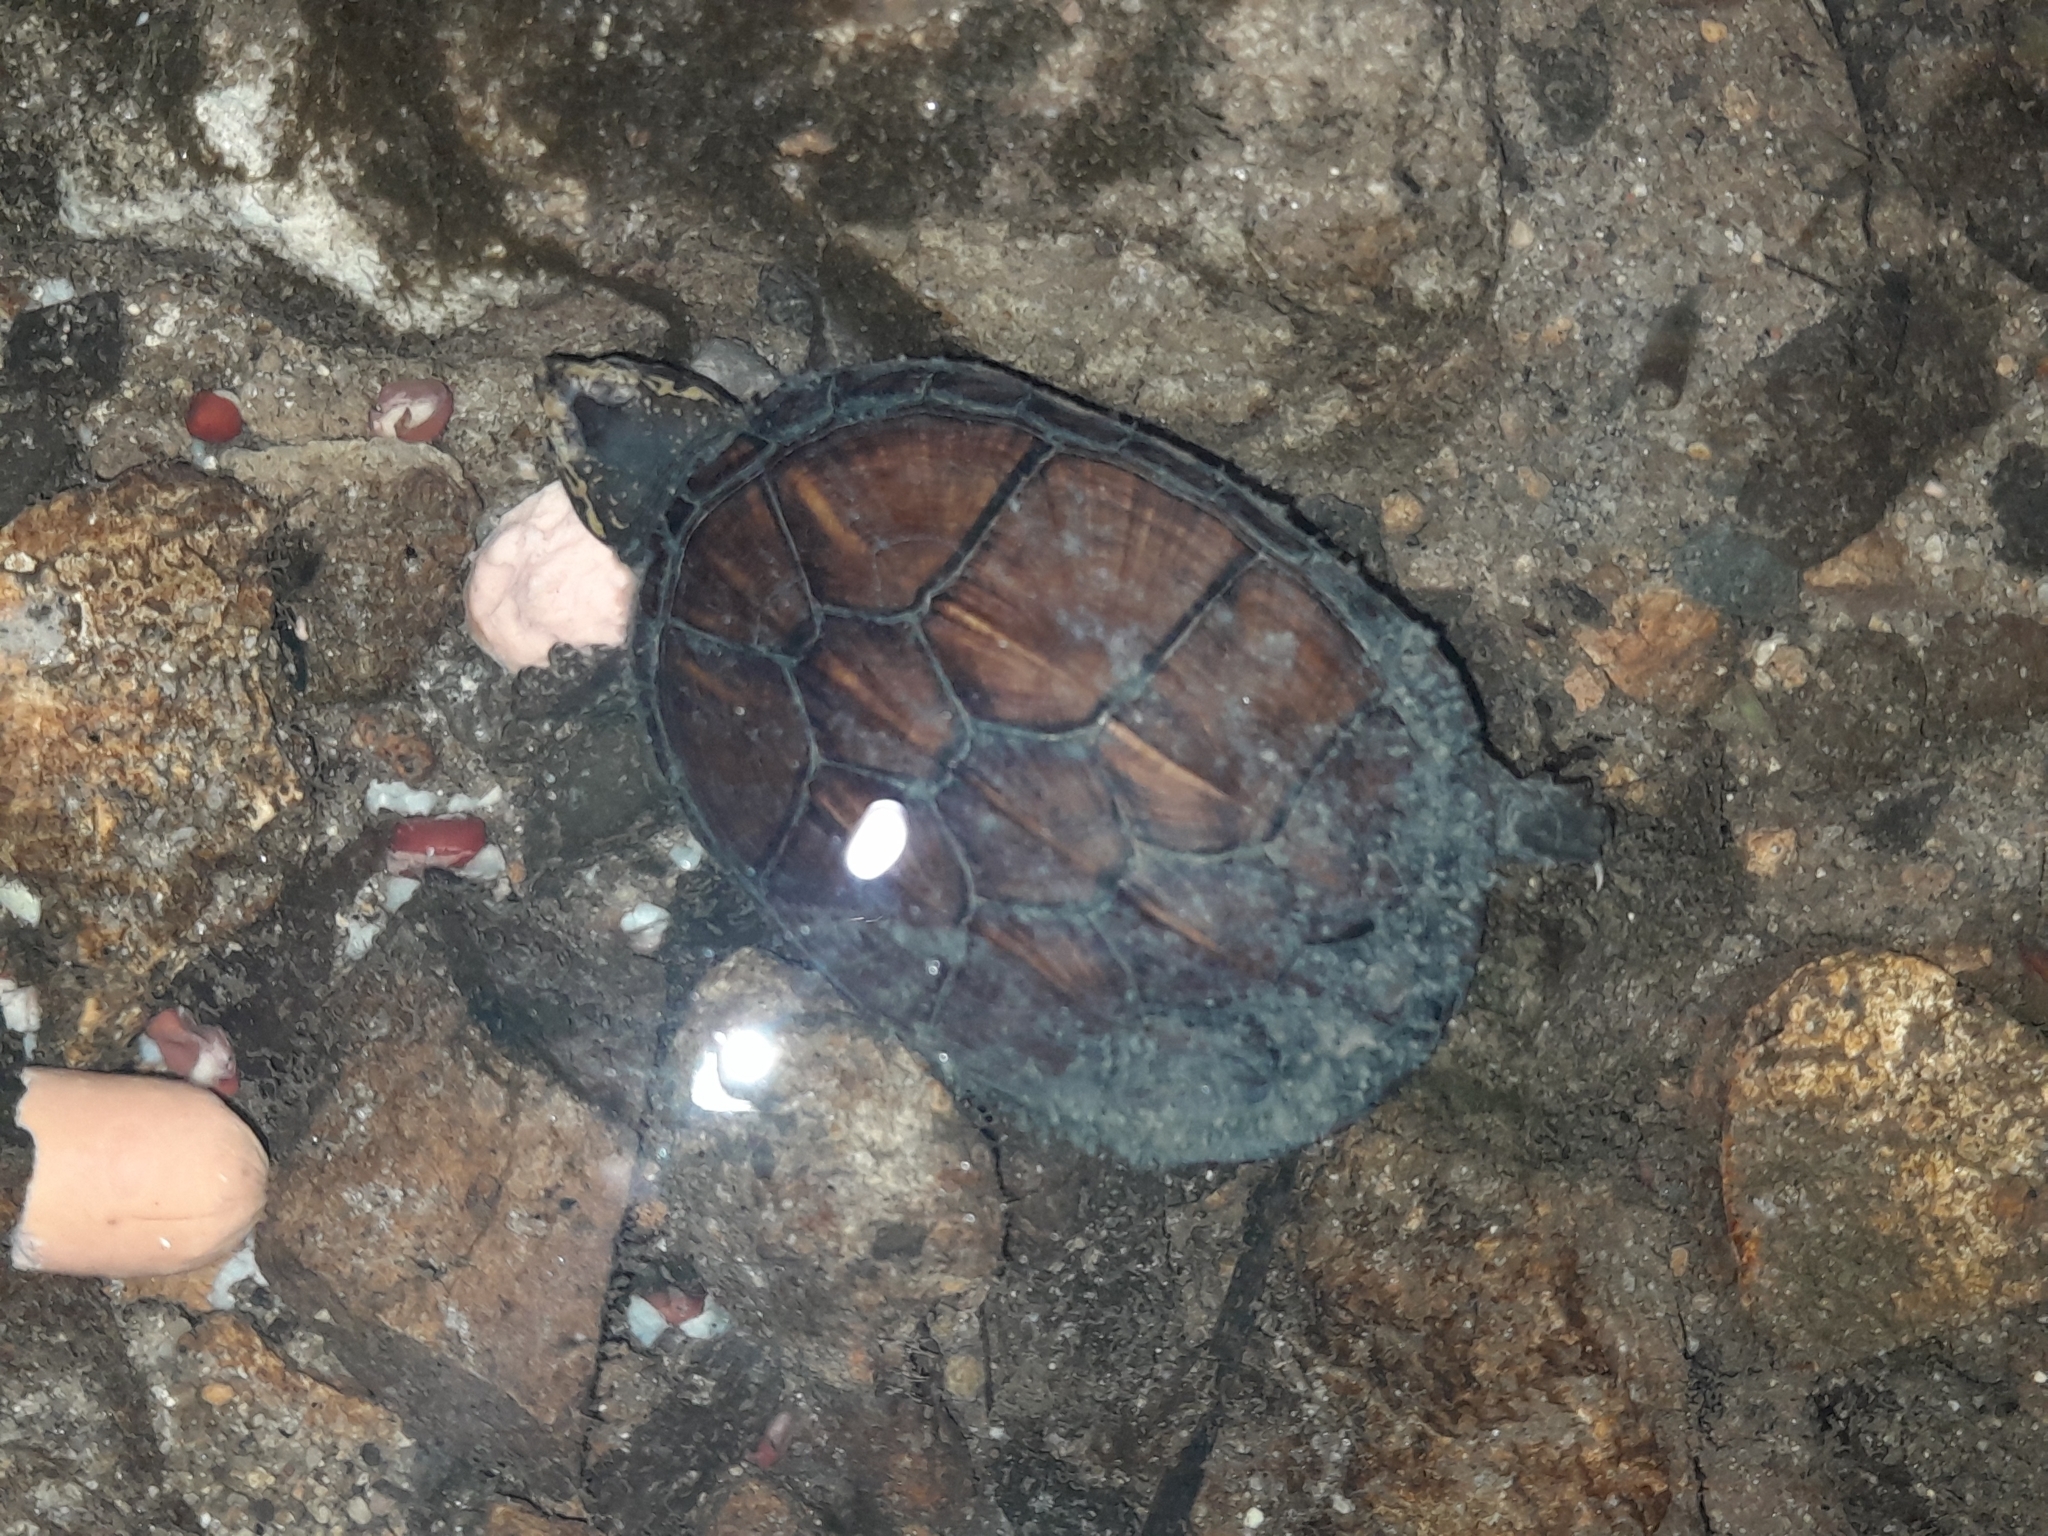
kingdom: Animalia
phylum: Chordata
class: Testudines
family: Kinosternidae
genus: Kinosternon
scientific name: Kinosternon scorpioides
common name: Scorpion mud turtle
